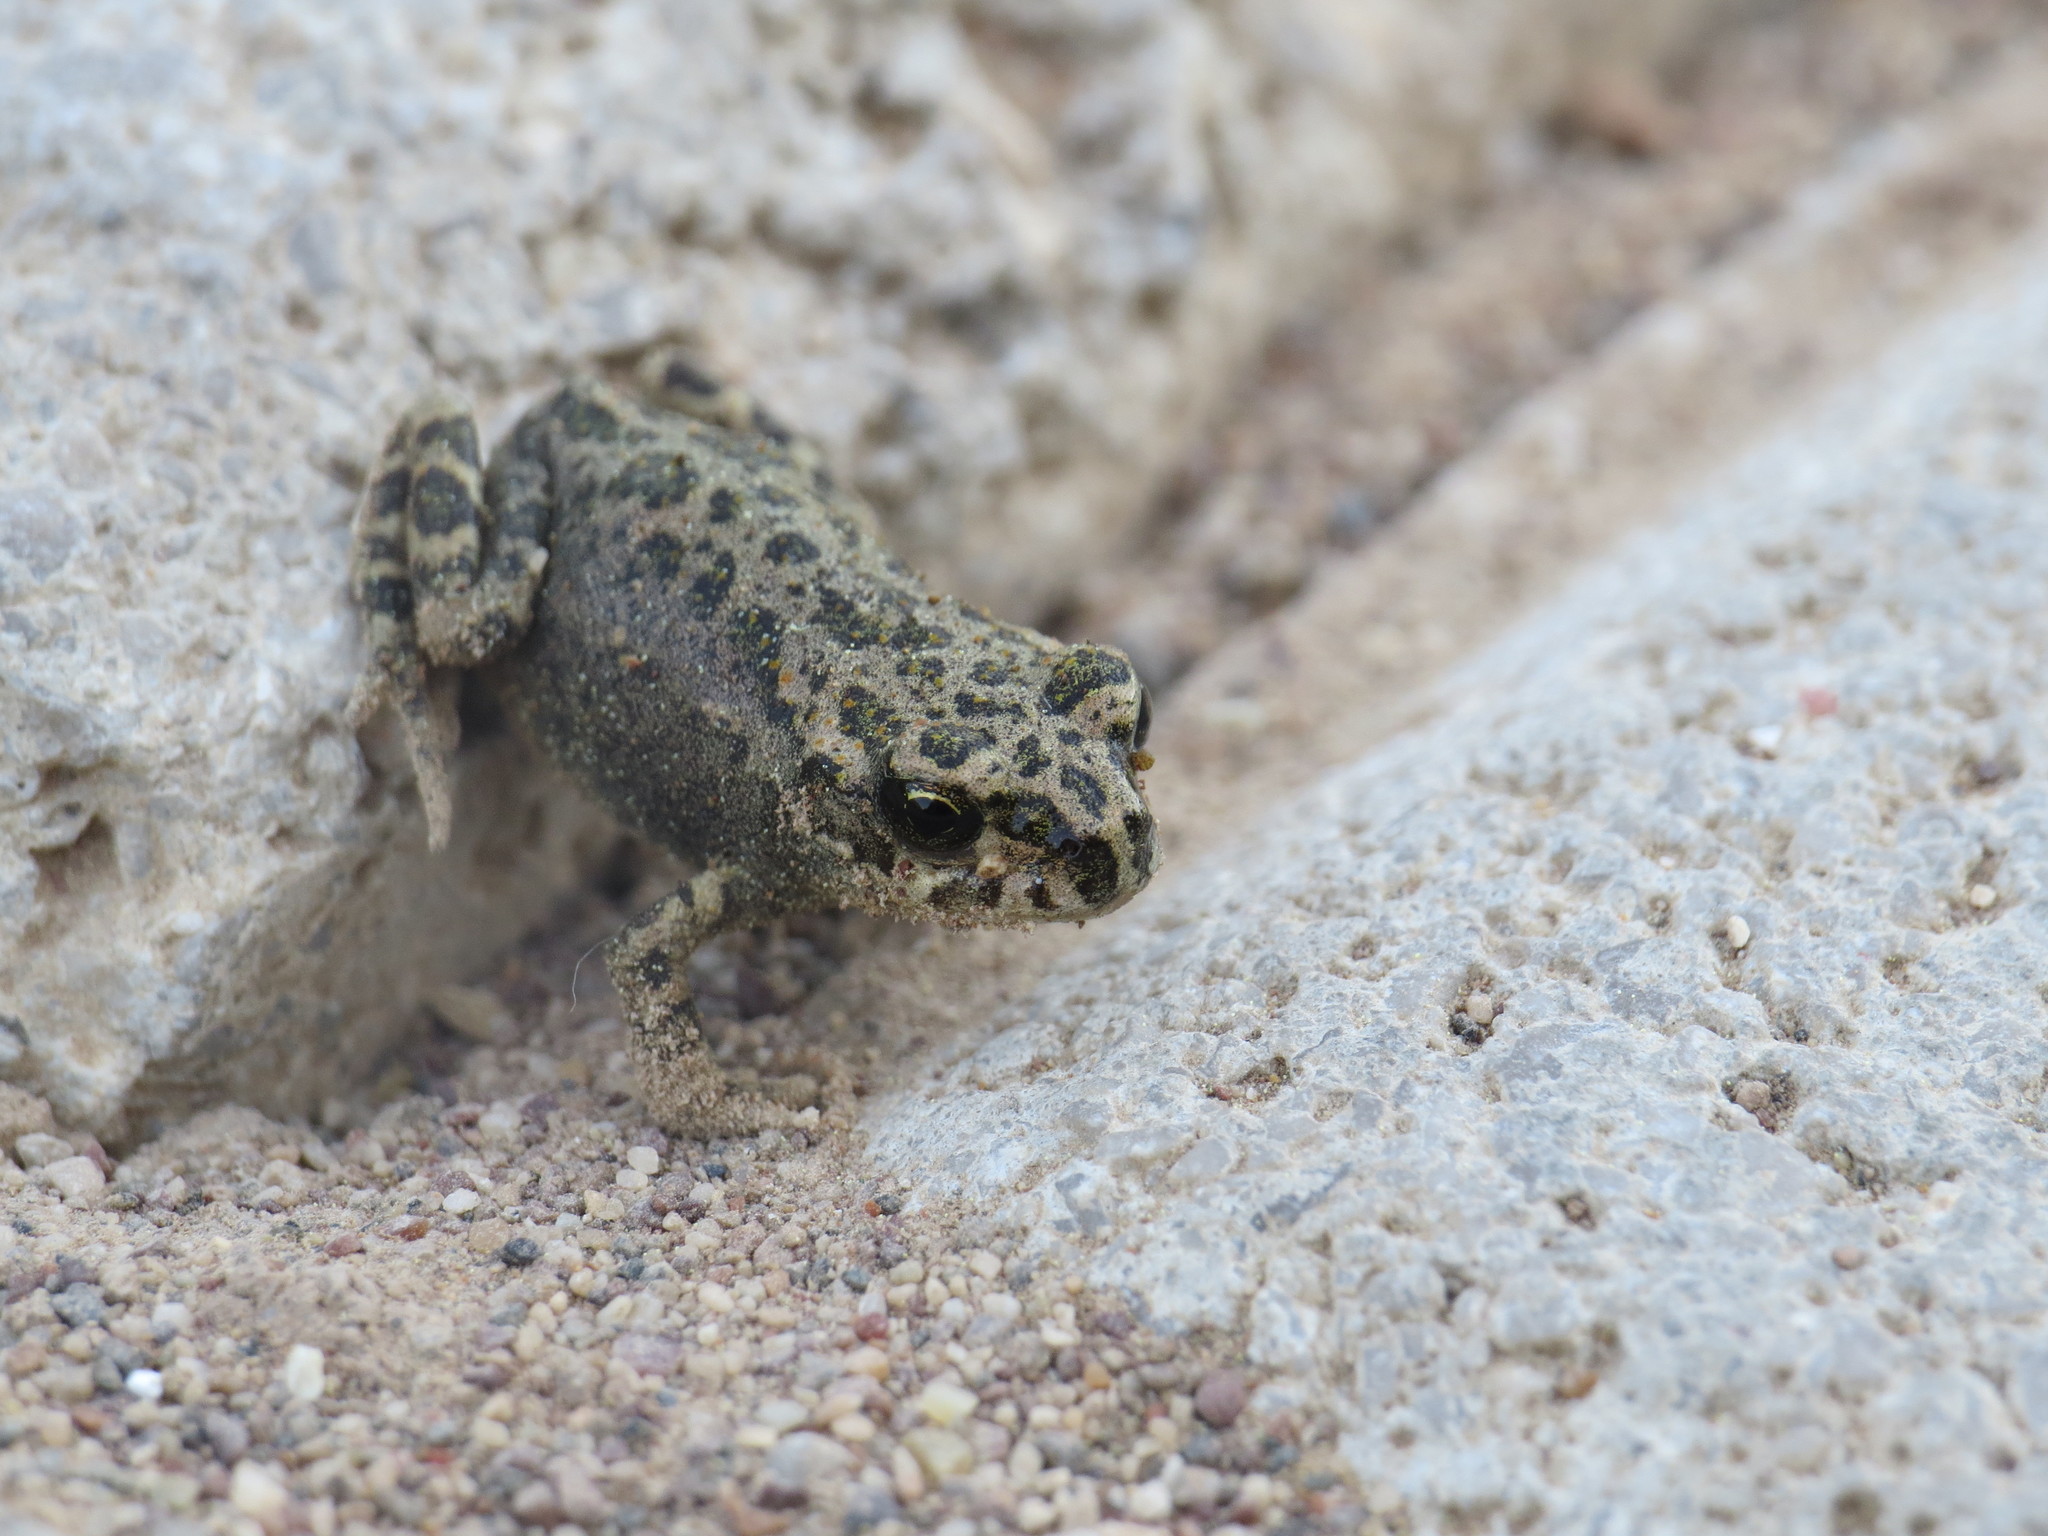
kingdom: Animalia
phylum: Chordata
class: Amphibia
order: Anura
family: Bufonidae
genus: Bufotes
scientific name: Bufotes viridis
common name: European green toad
